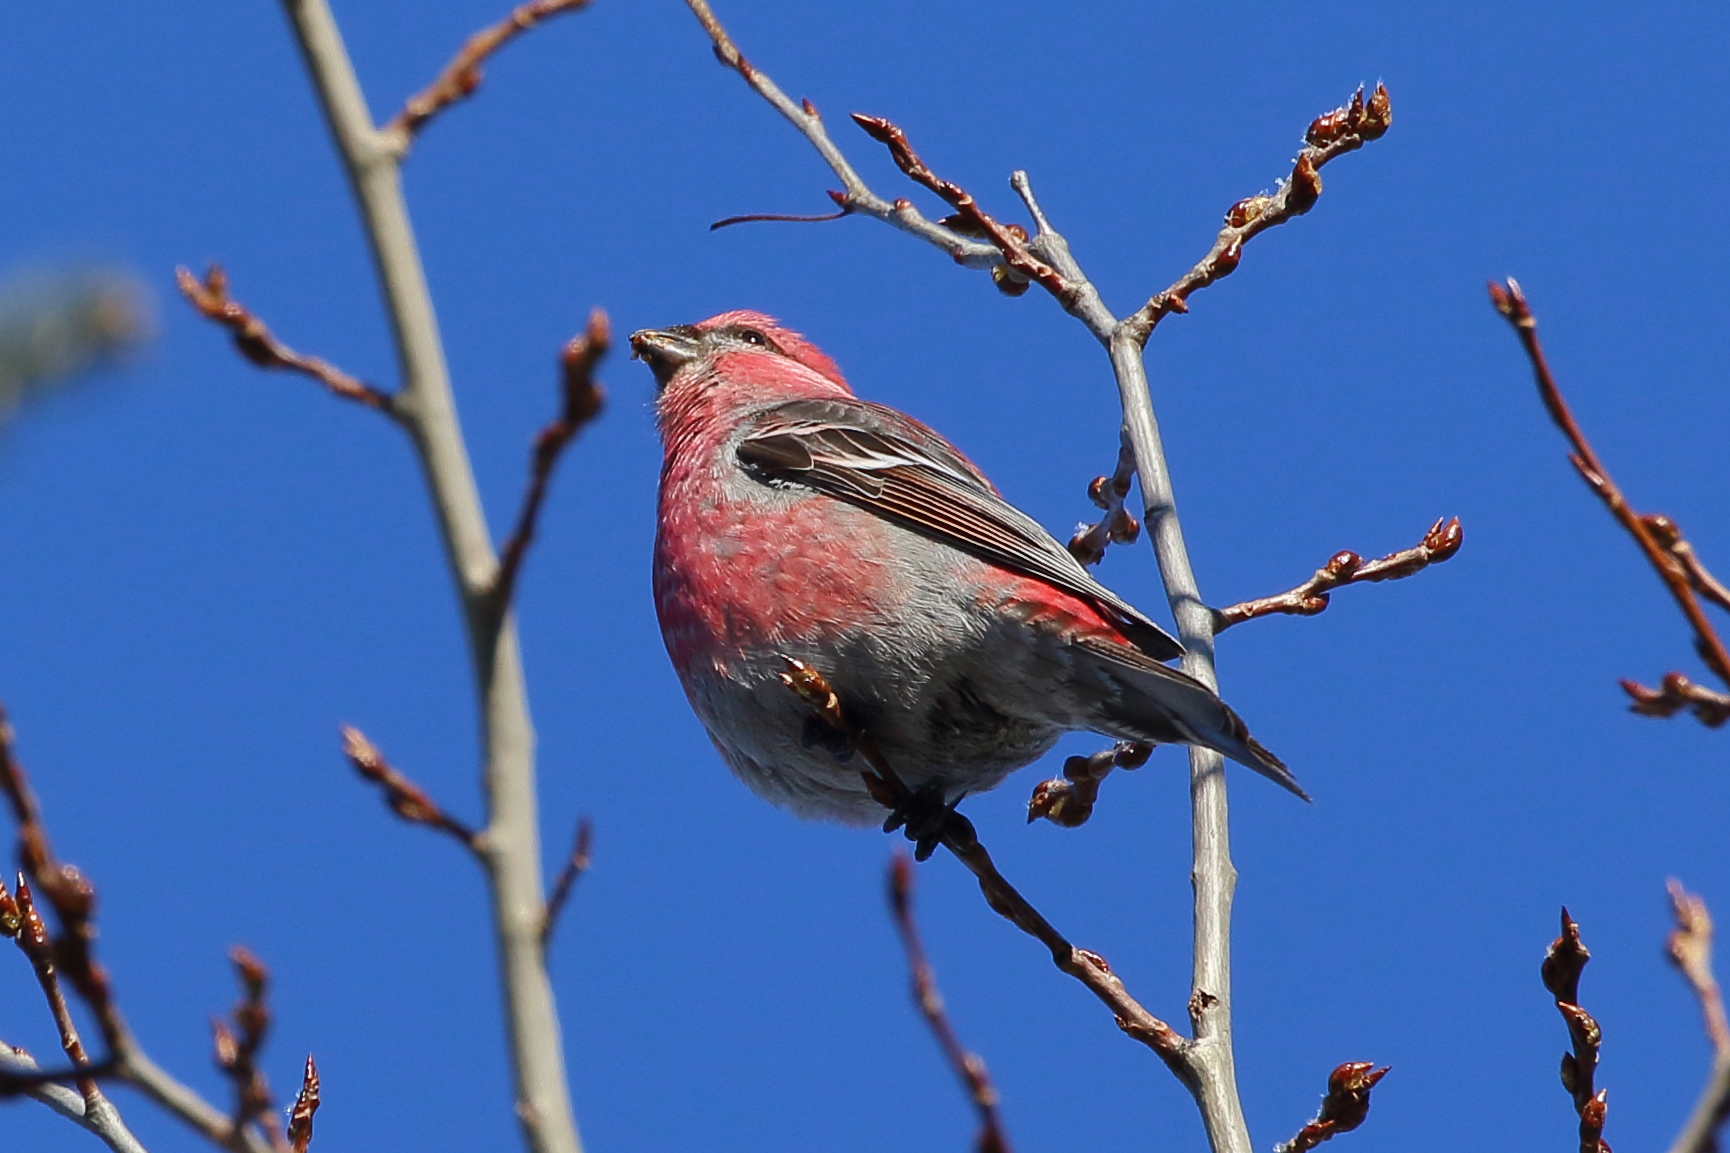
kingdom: Animalia
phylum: Chordata
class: Aves
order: Passeriformes
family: Fringillidae
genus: Pinicola
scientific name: Pinicola enucleator
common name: Pine grosbeak
